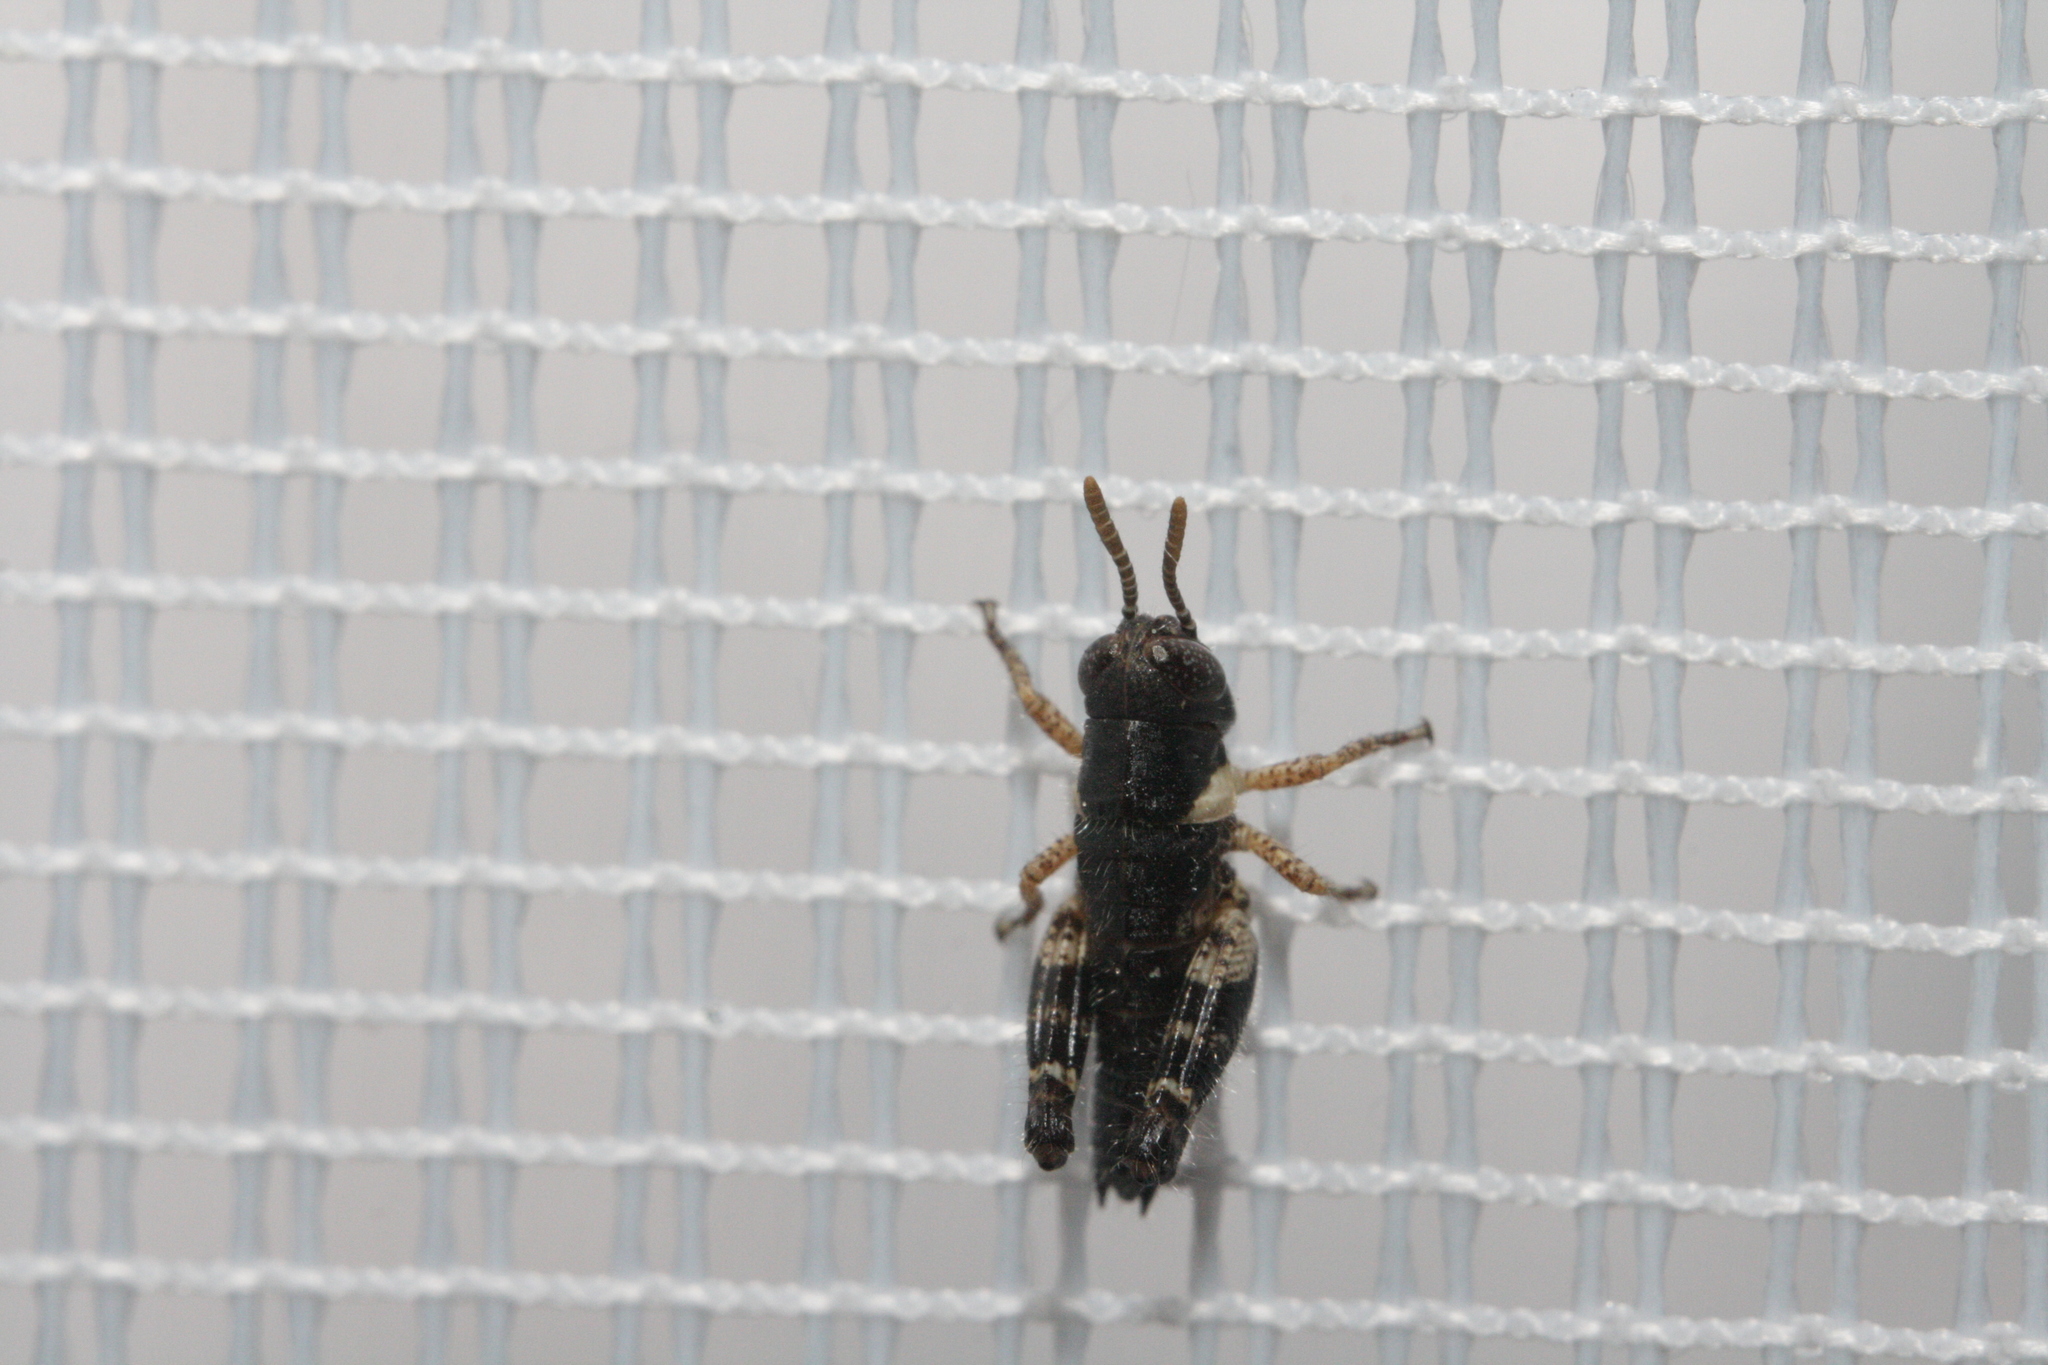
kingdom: Animalia
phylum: Arthropoda
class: Insecta
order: Orthoptera
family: Acrididae
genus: Calliptamus
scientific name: Calliptamus italicus
